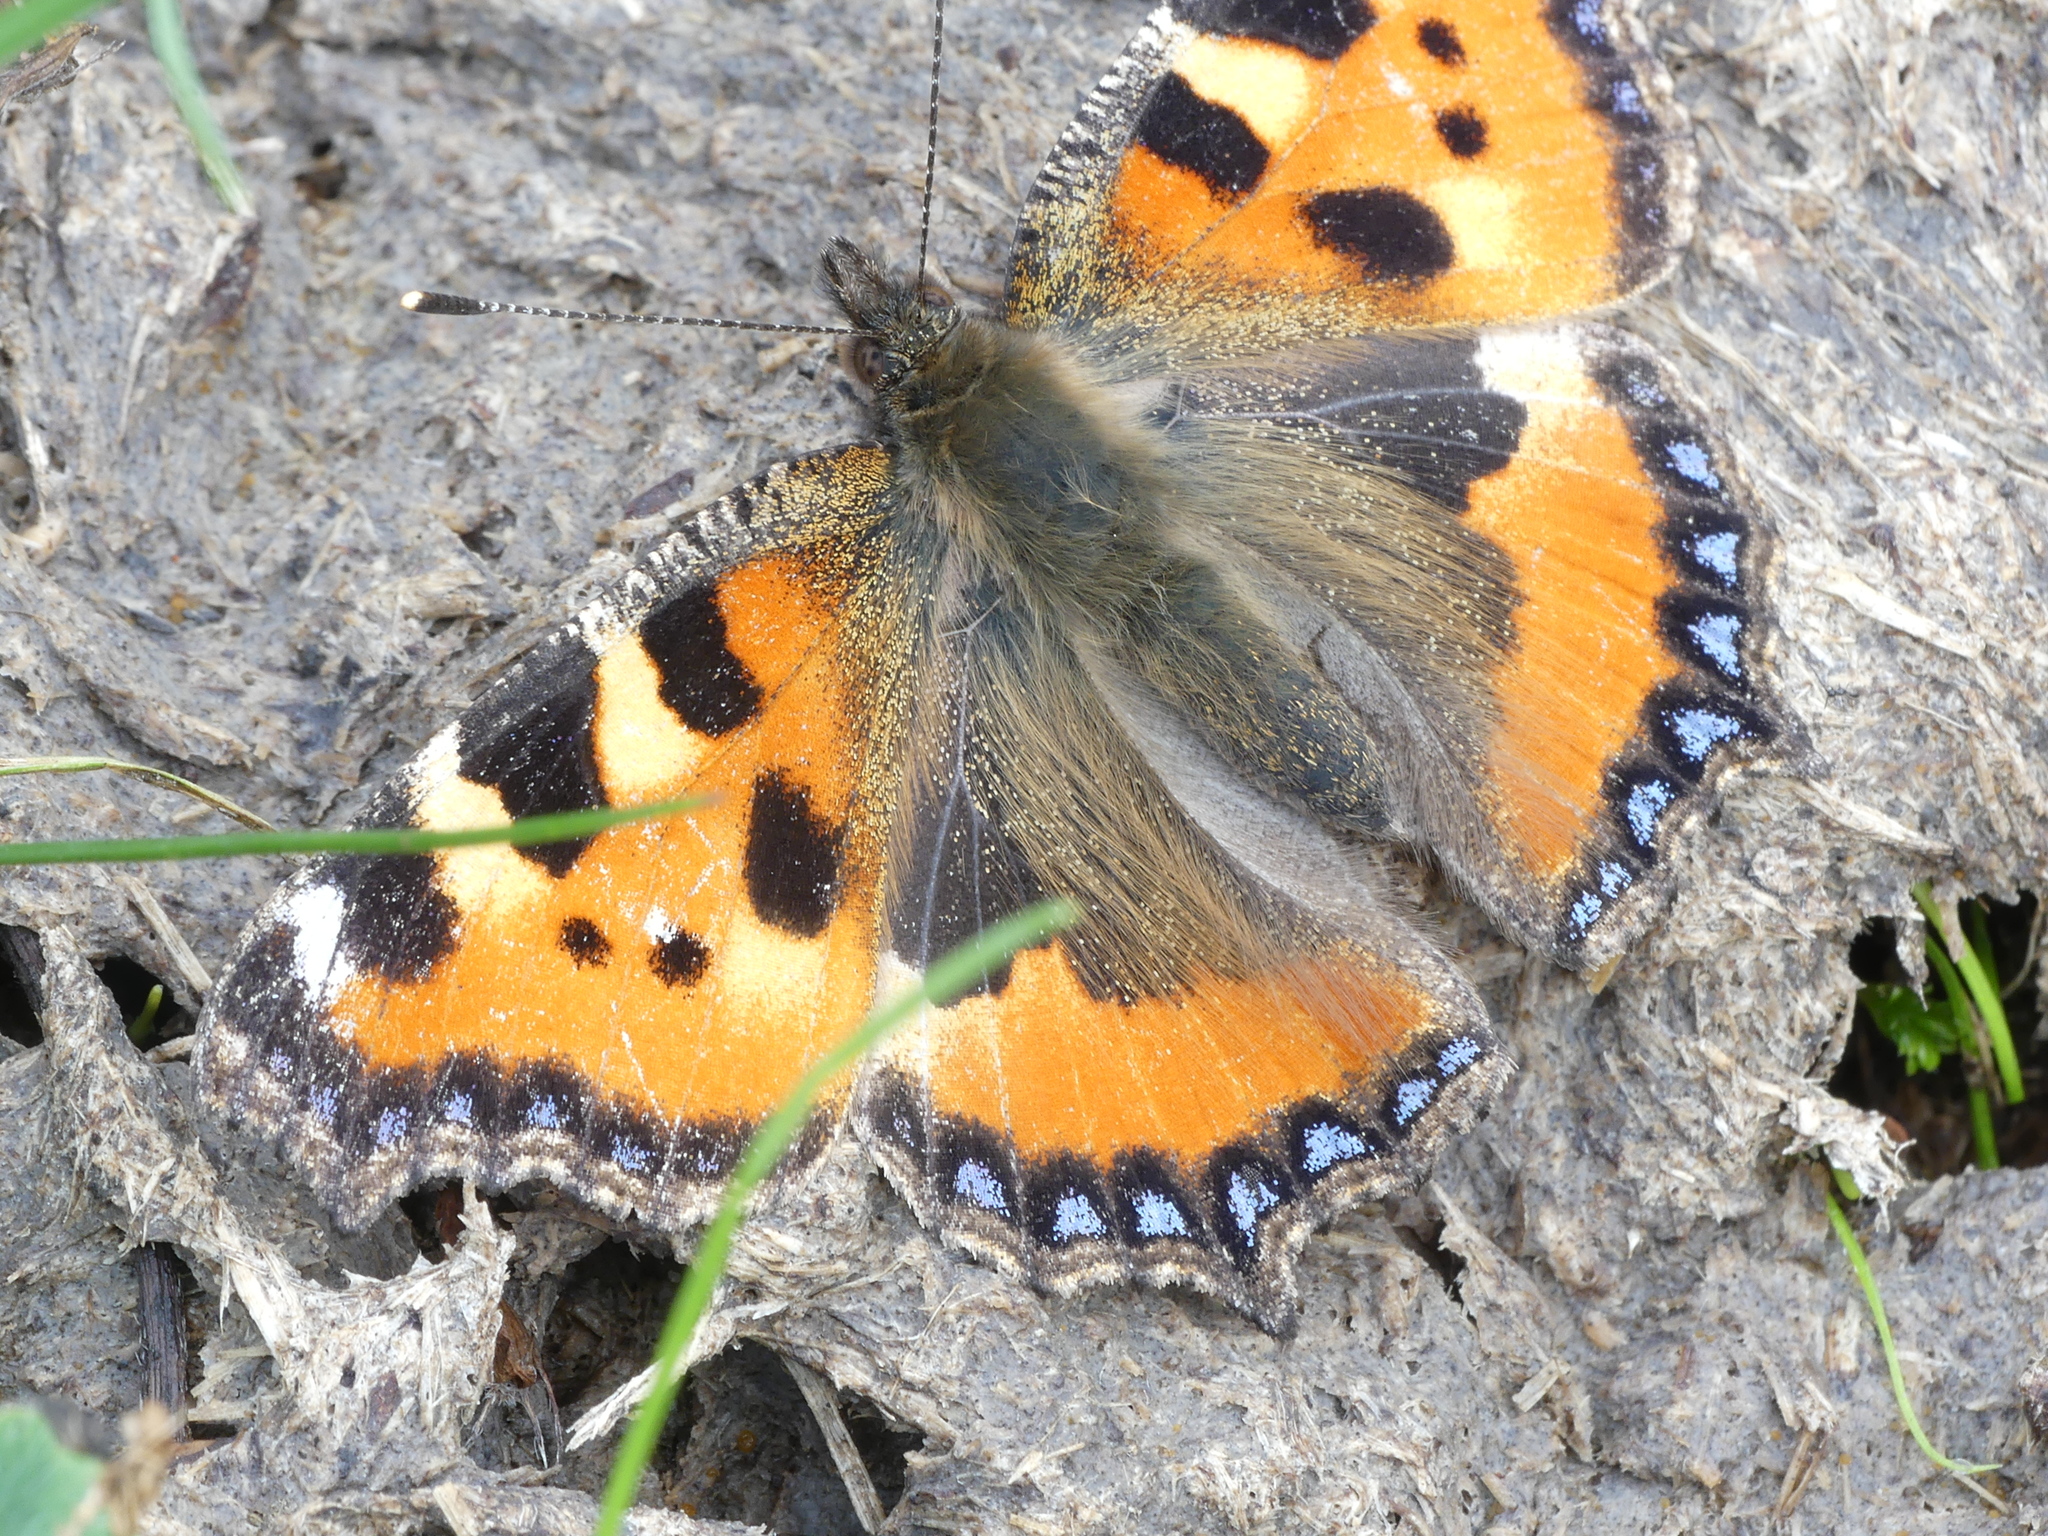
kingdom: Animalia
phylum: Arthropoda
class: Insecta
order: Lepidoptera
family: Nymphalidae
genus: Aglais
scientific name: Aglais urticae
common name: Small tortoiseshell
